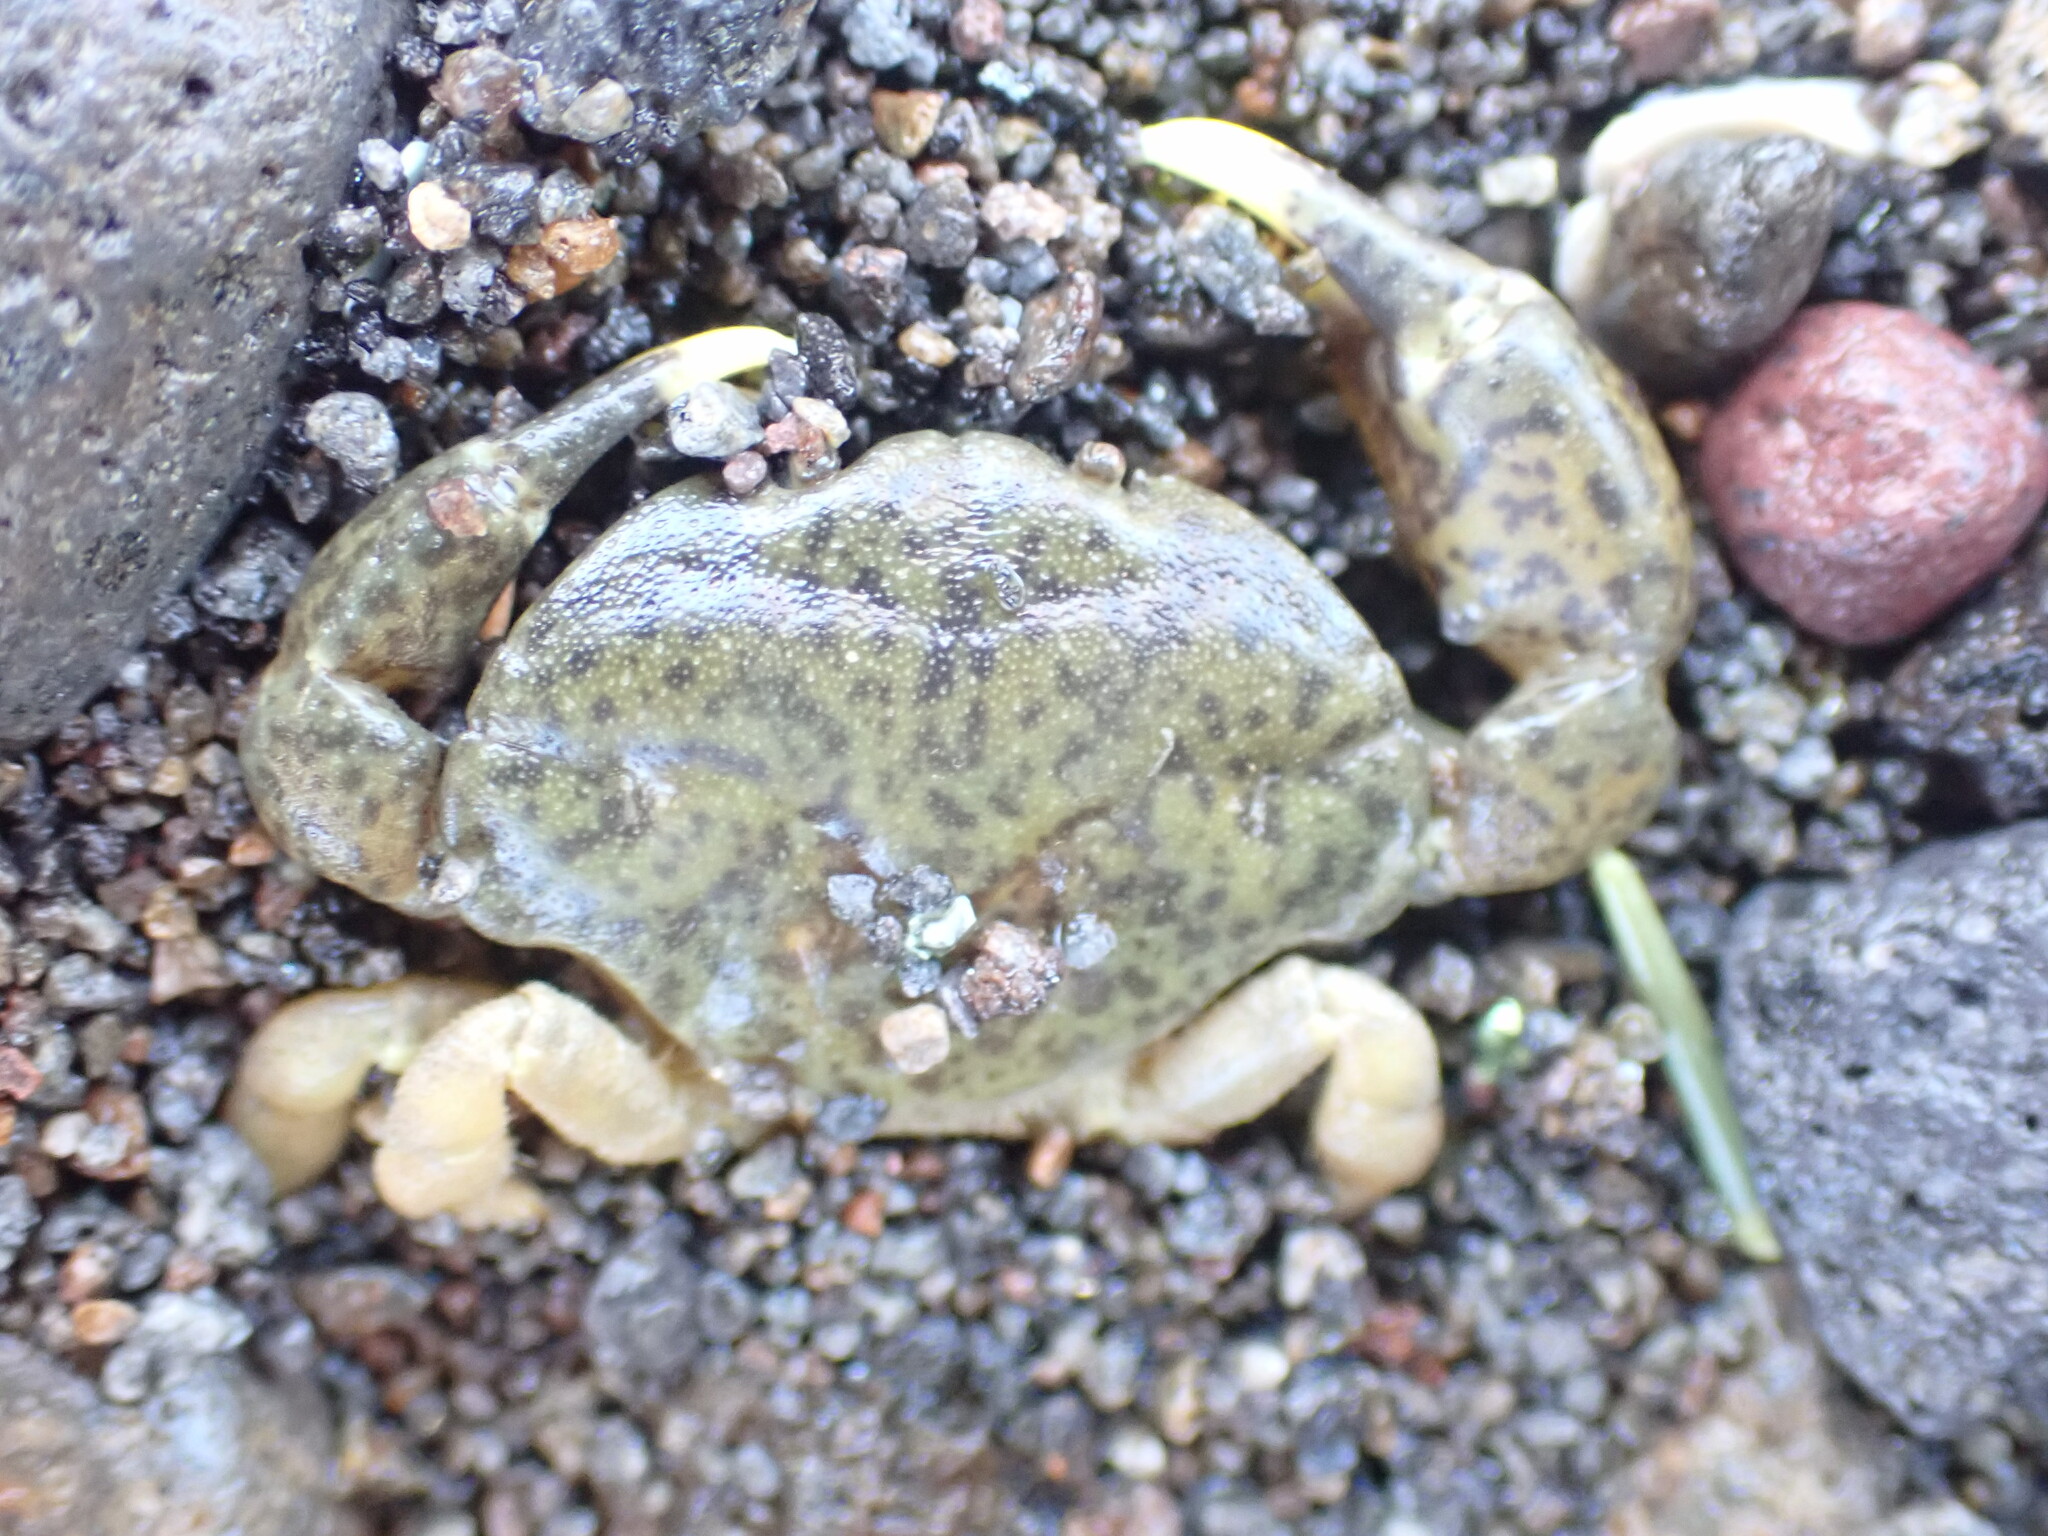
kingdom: Animalia
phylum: Arthropoda
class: Malacostraca
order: Decapoda
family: Heteroziidae
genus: Heterozius
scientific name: Heterozius rotundifrons
